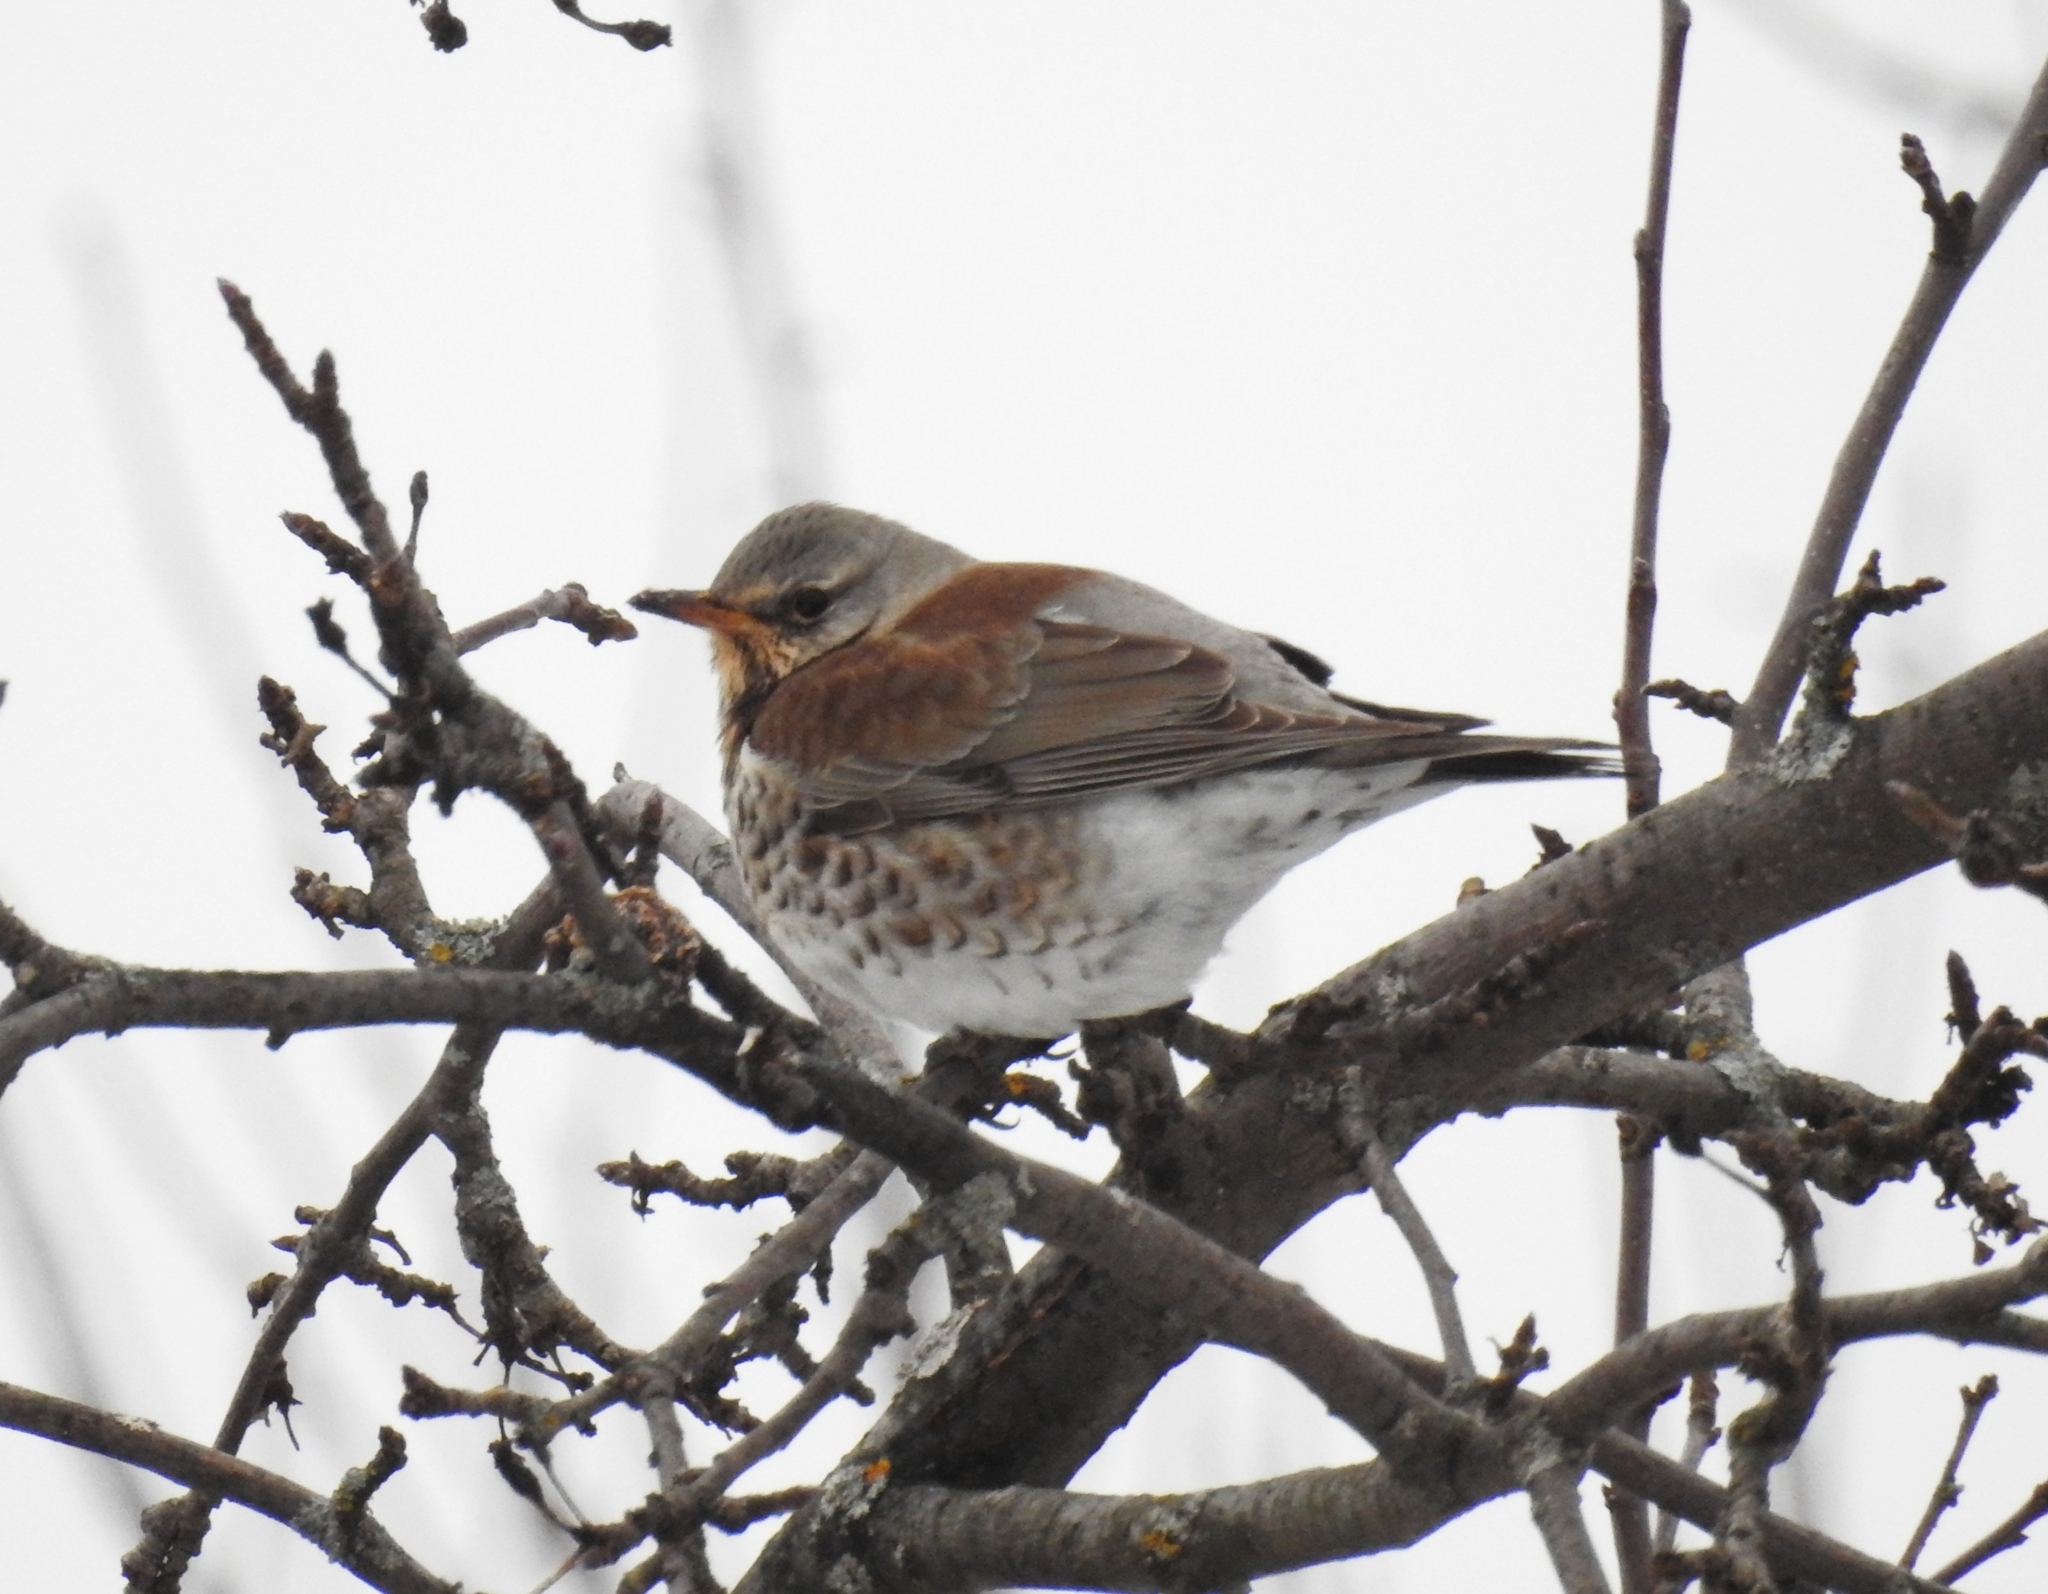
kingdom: Animalia
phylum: Chordata
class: Aves
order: Passeriformes
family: Turdidae
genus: Turdus
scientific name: Turdus pilaris
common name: Fieldfare
